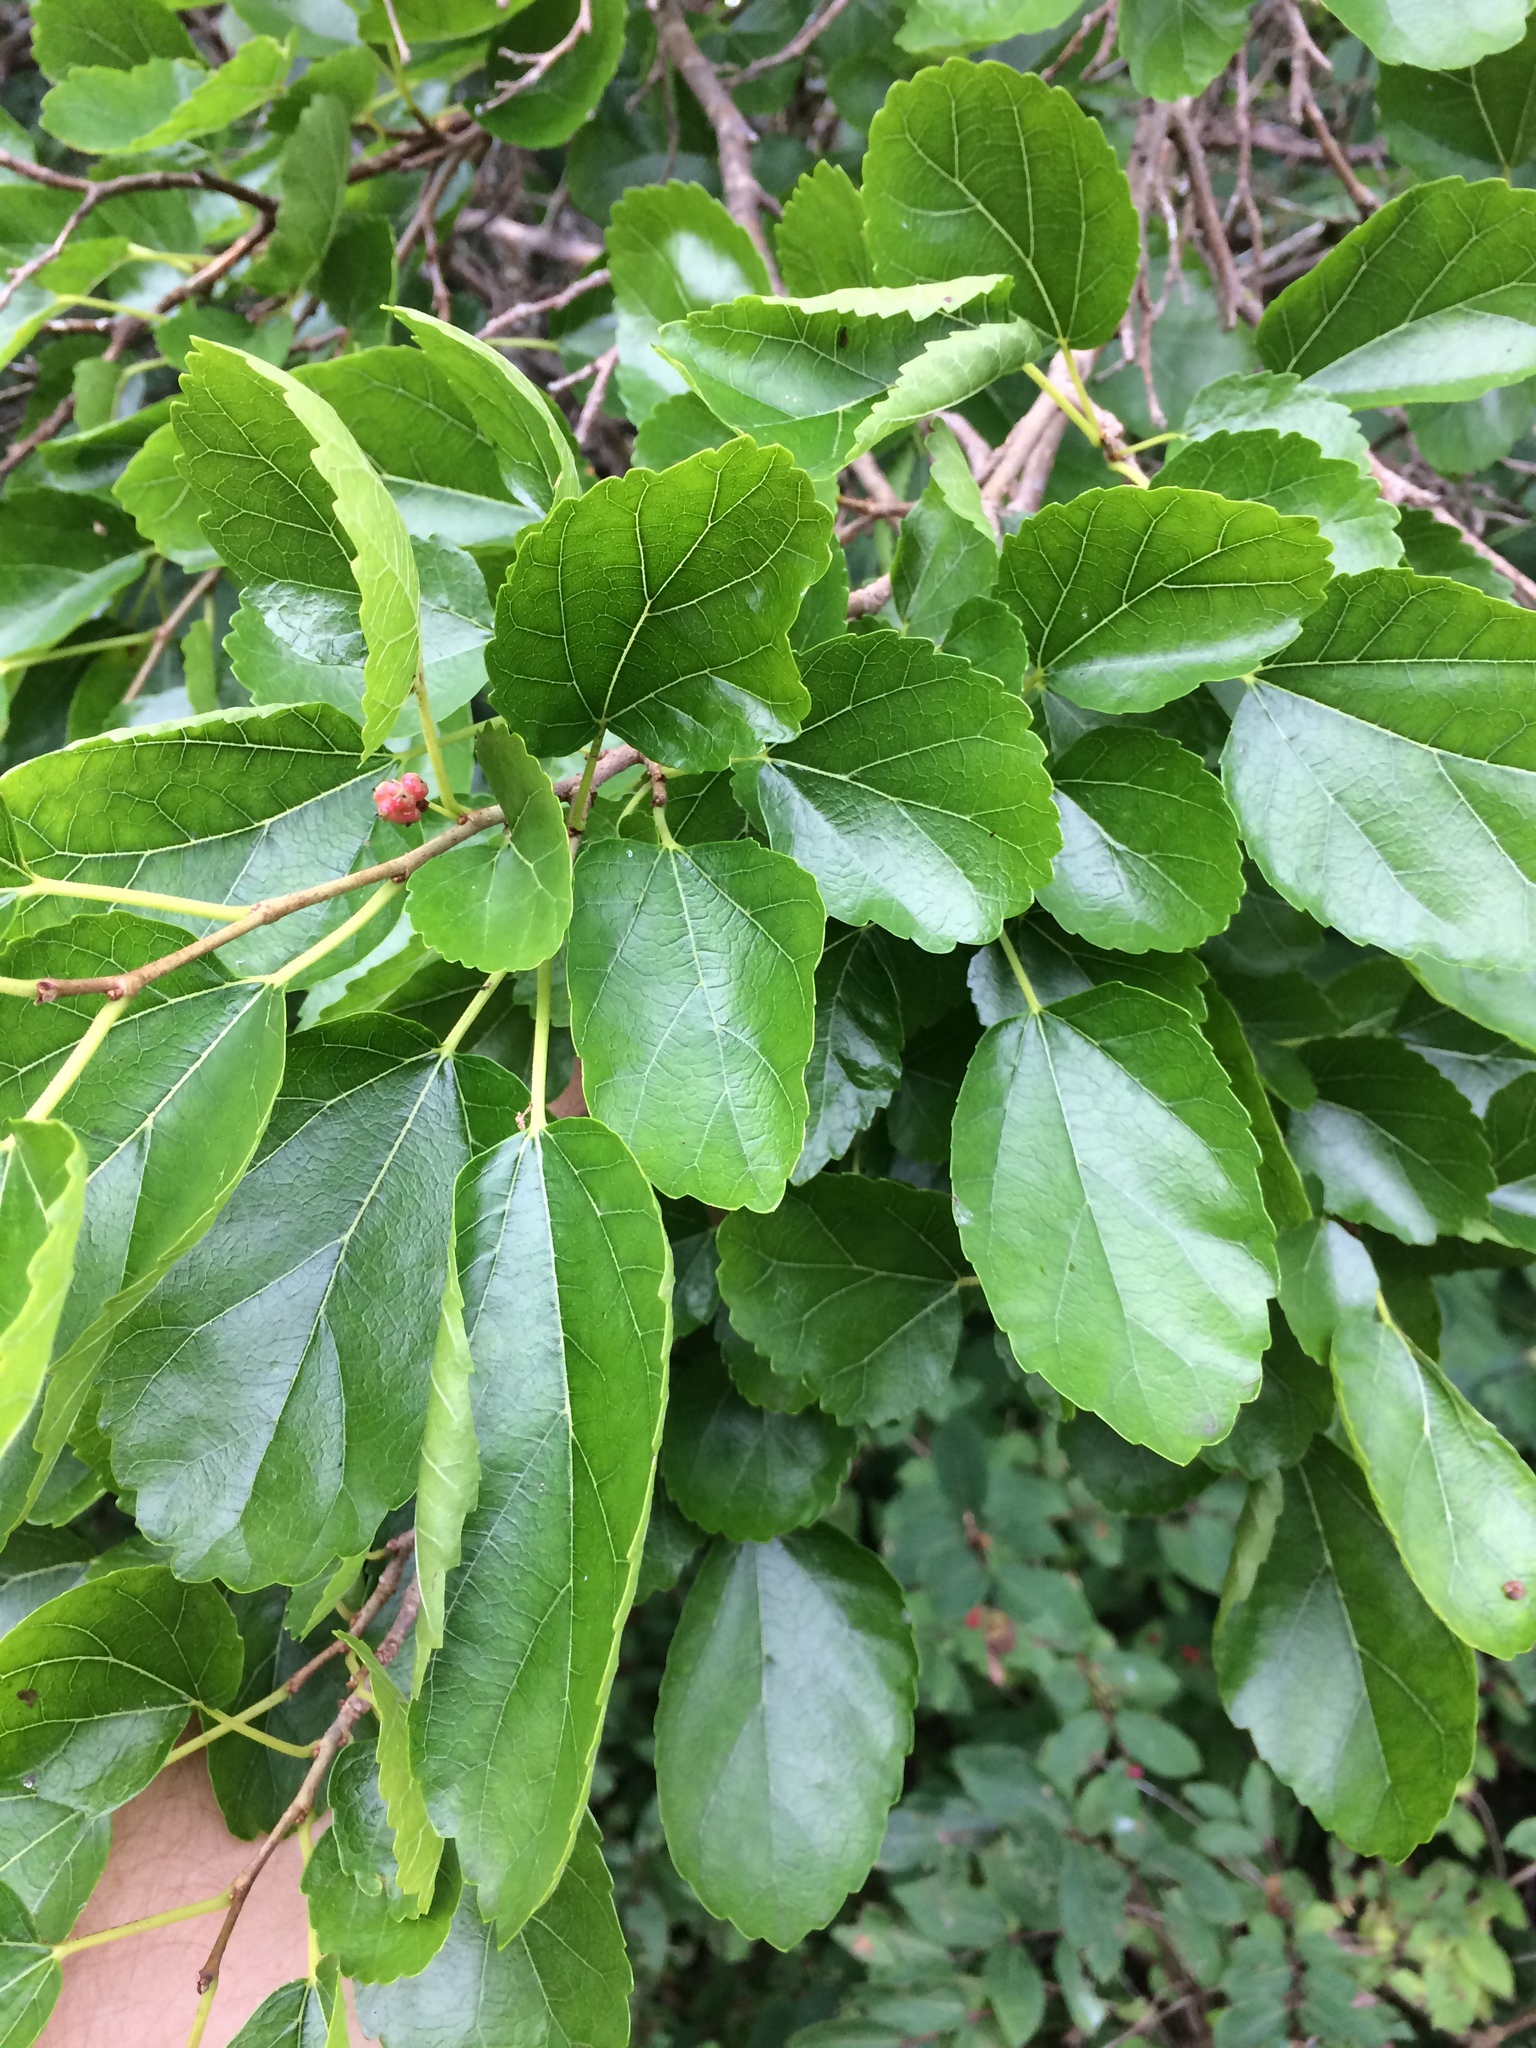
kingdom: Plantae
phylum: Tracheophyta
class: Magnoliopsida
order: Rosales
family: Moraceae
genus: Morus
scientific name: Morus alba
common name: White mulberry
